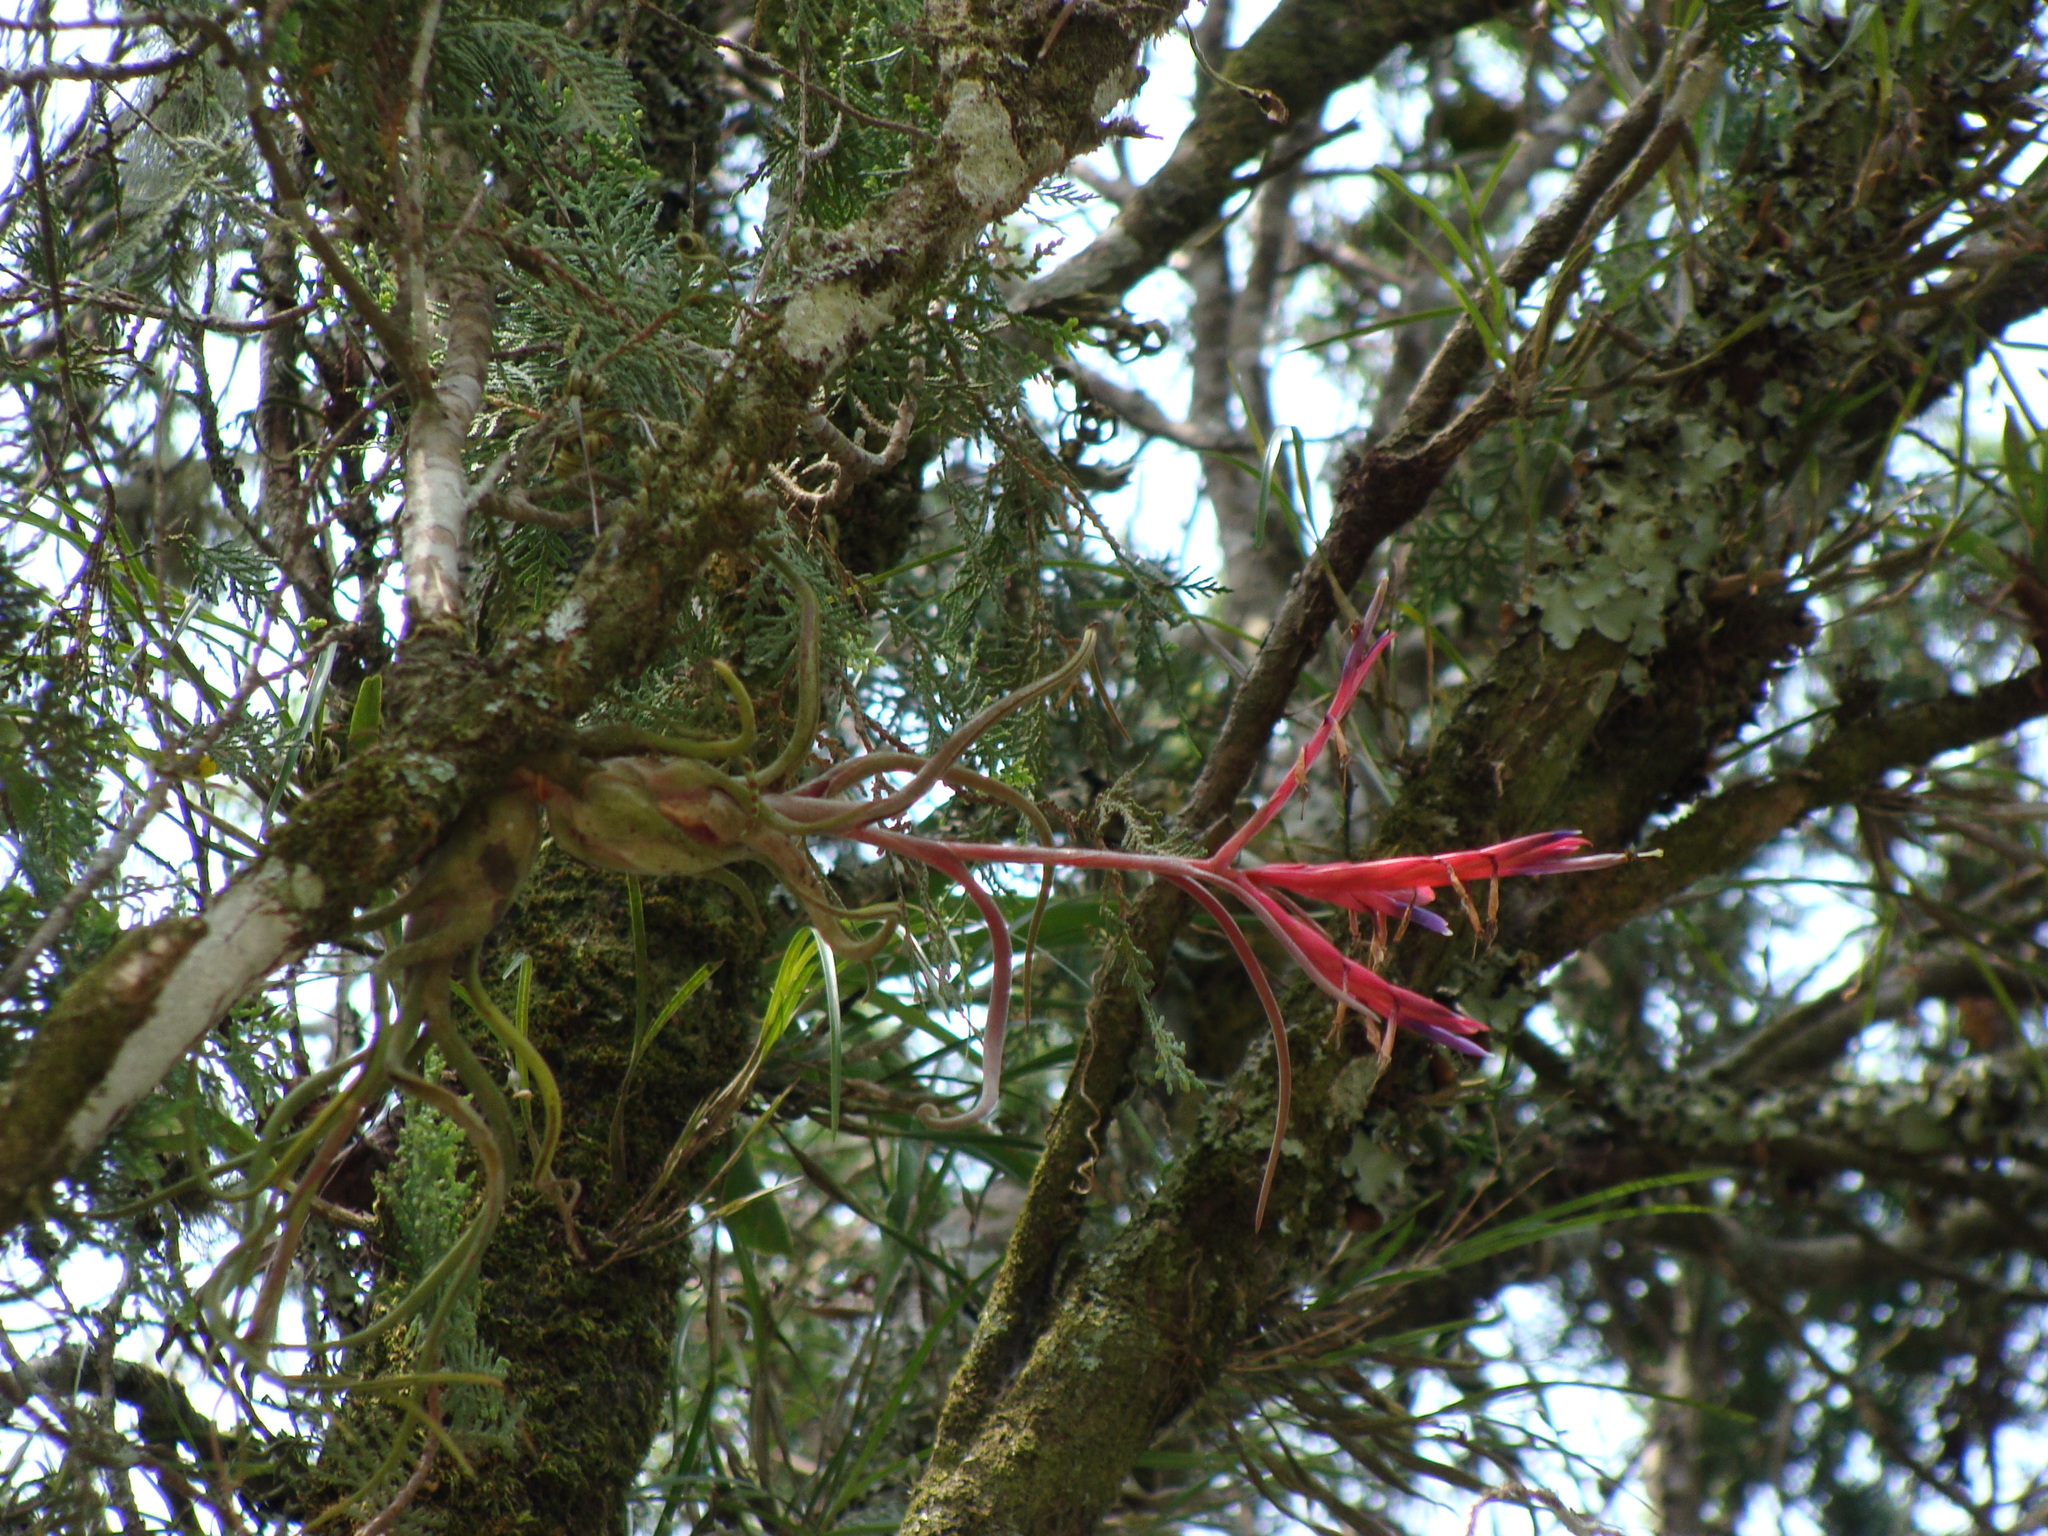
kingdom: Plantae
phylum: Tracheophyta
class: Liliopsida
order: Poales
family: Bromeliaceae
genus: Tillandsia
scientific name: Tillandsia caput-medusae
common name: Octopus plant
